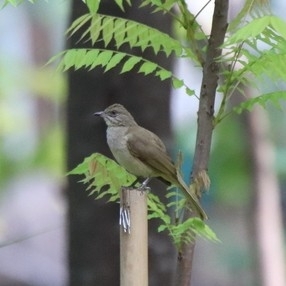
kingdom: Animalia
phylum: Chordata
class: Aves
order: Passeriformes
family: Pycnonotidae
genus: Pycnonotus
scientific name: Pycnonotus blanfordi
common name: Streak-eared bulbul
